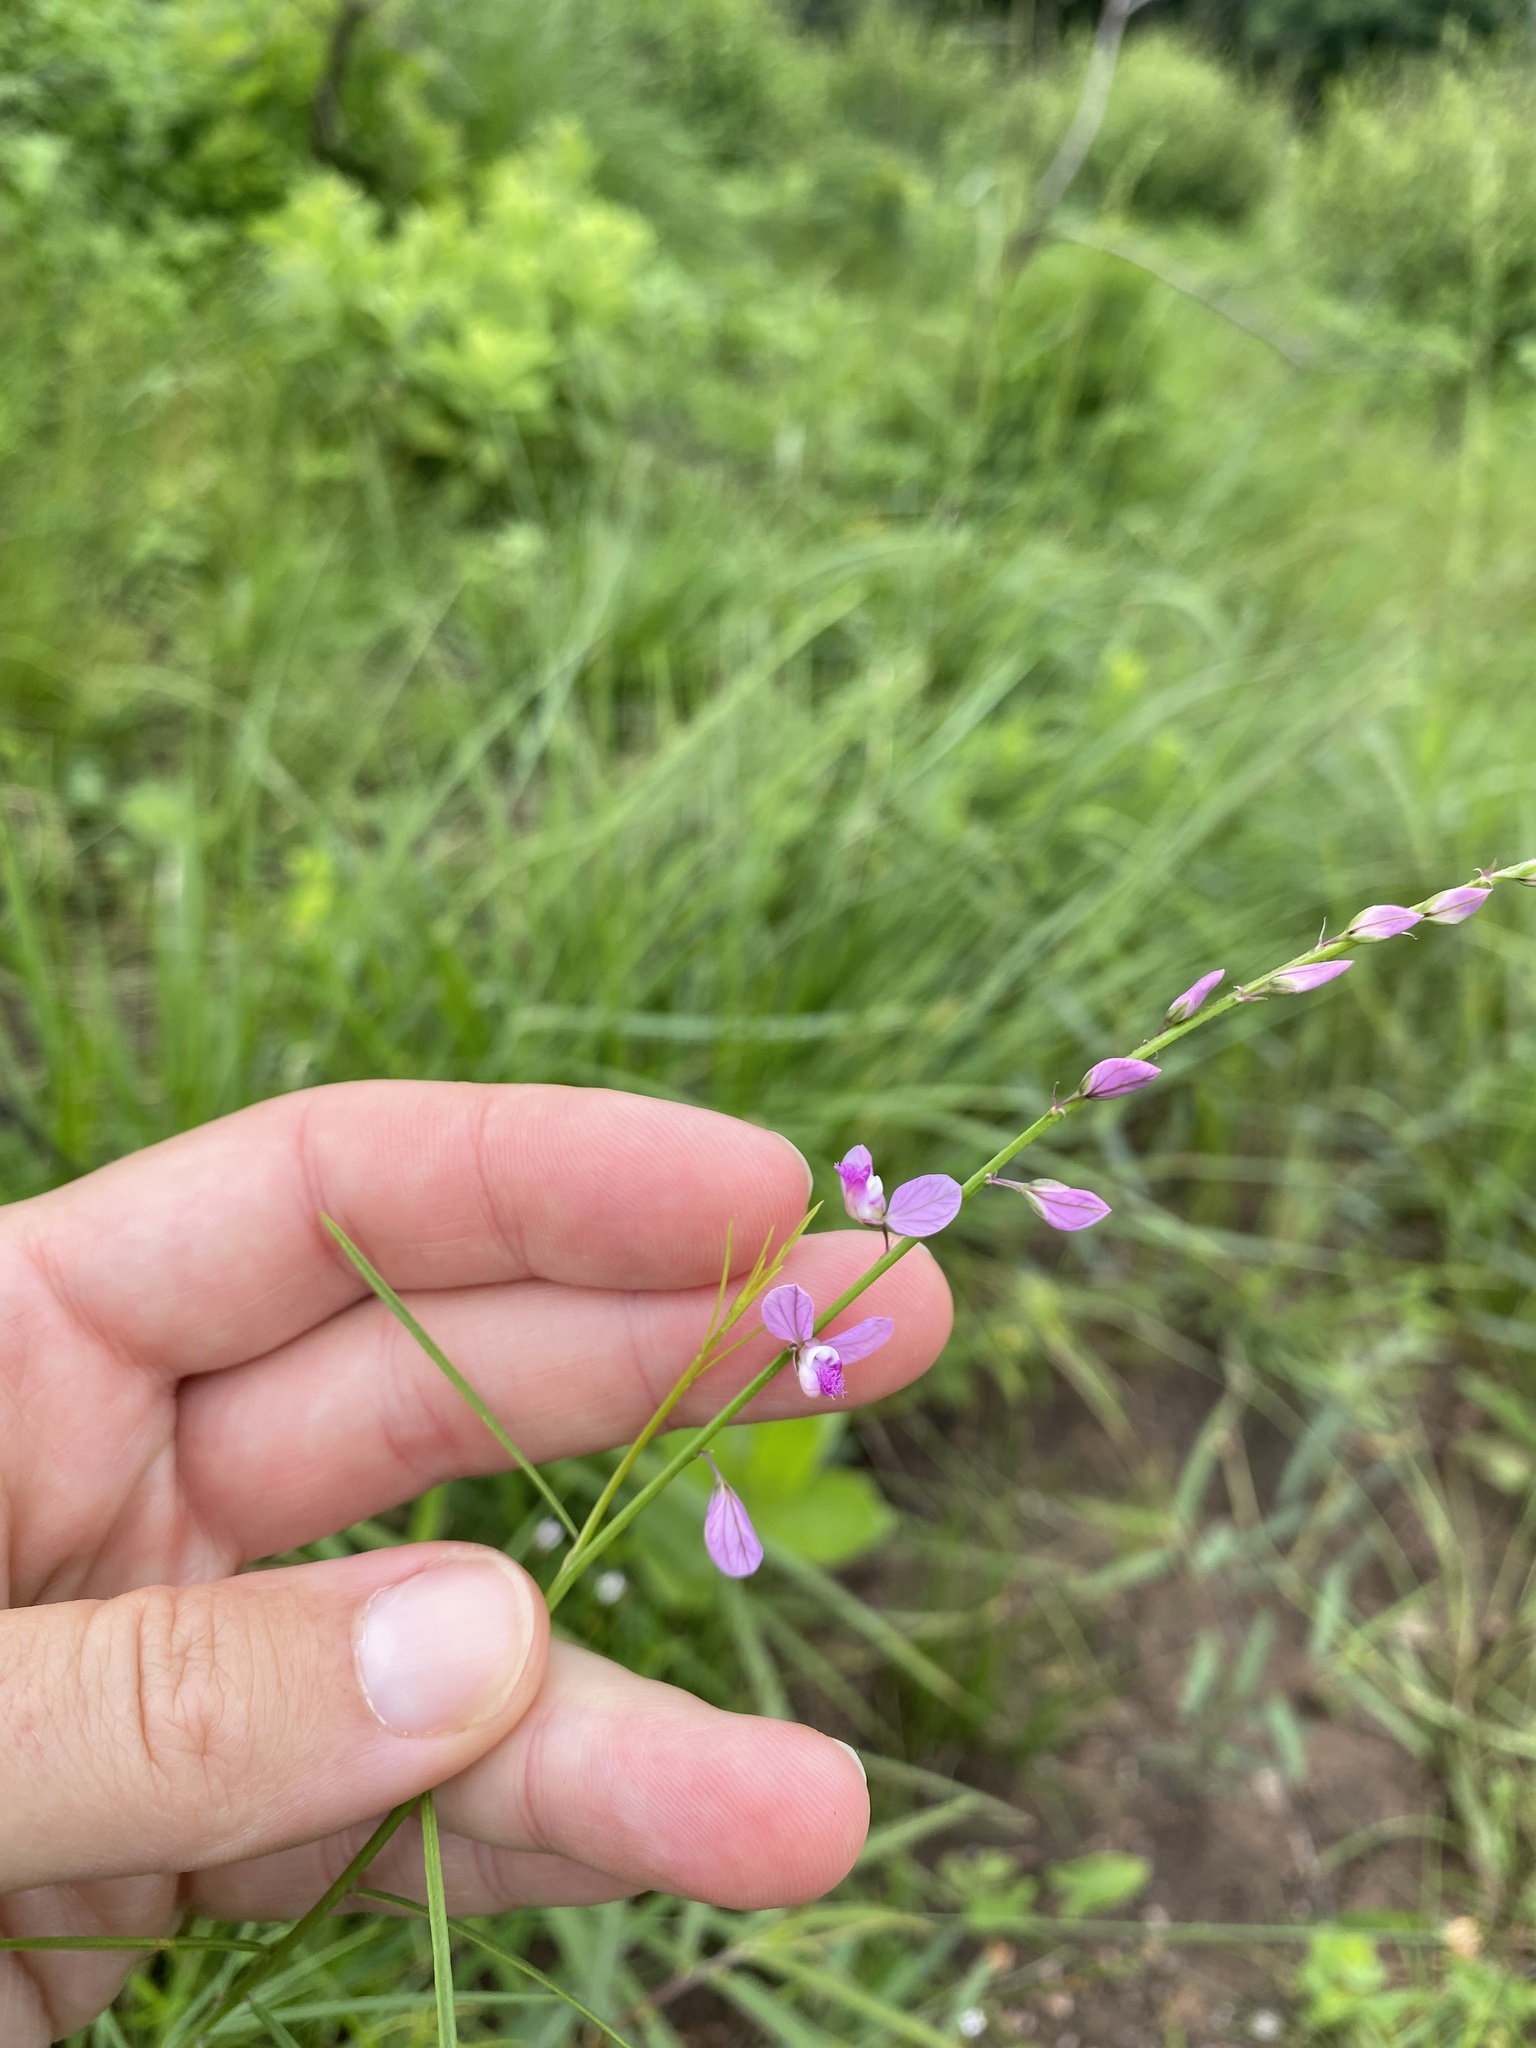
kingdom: Plantae
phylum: Tracheophyta
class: Magnoliopsida
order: Fabales
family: Polygalaceae
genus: Polygala
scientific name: Polygala hottentotta
